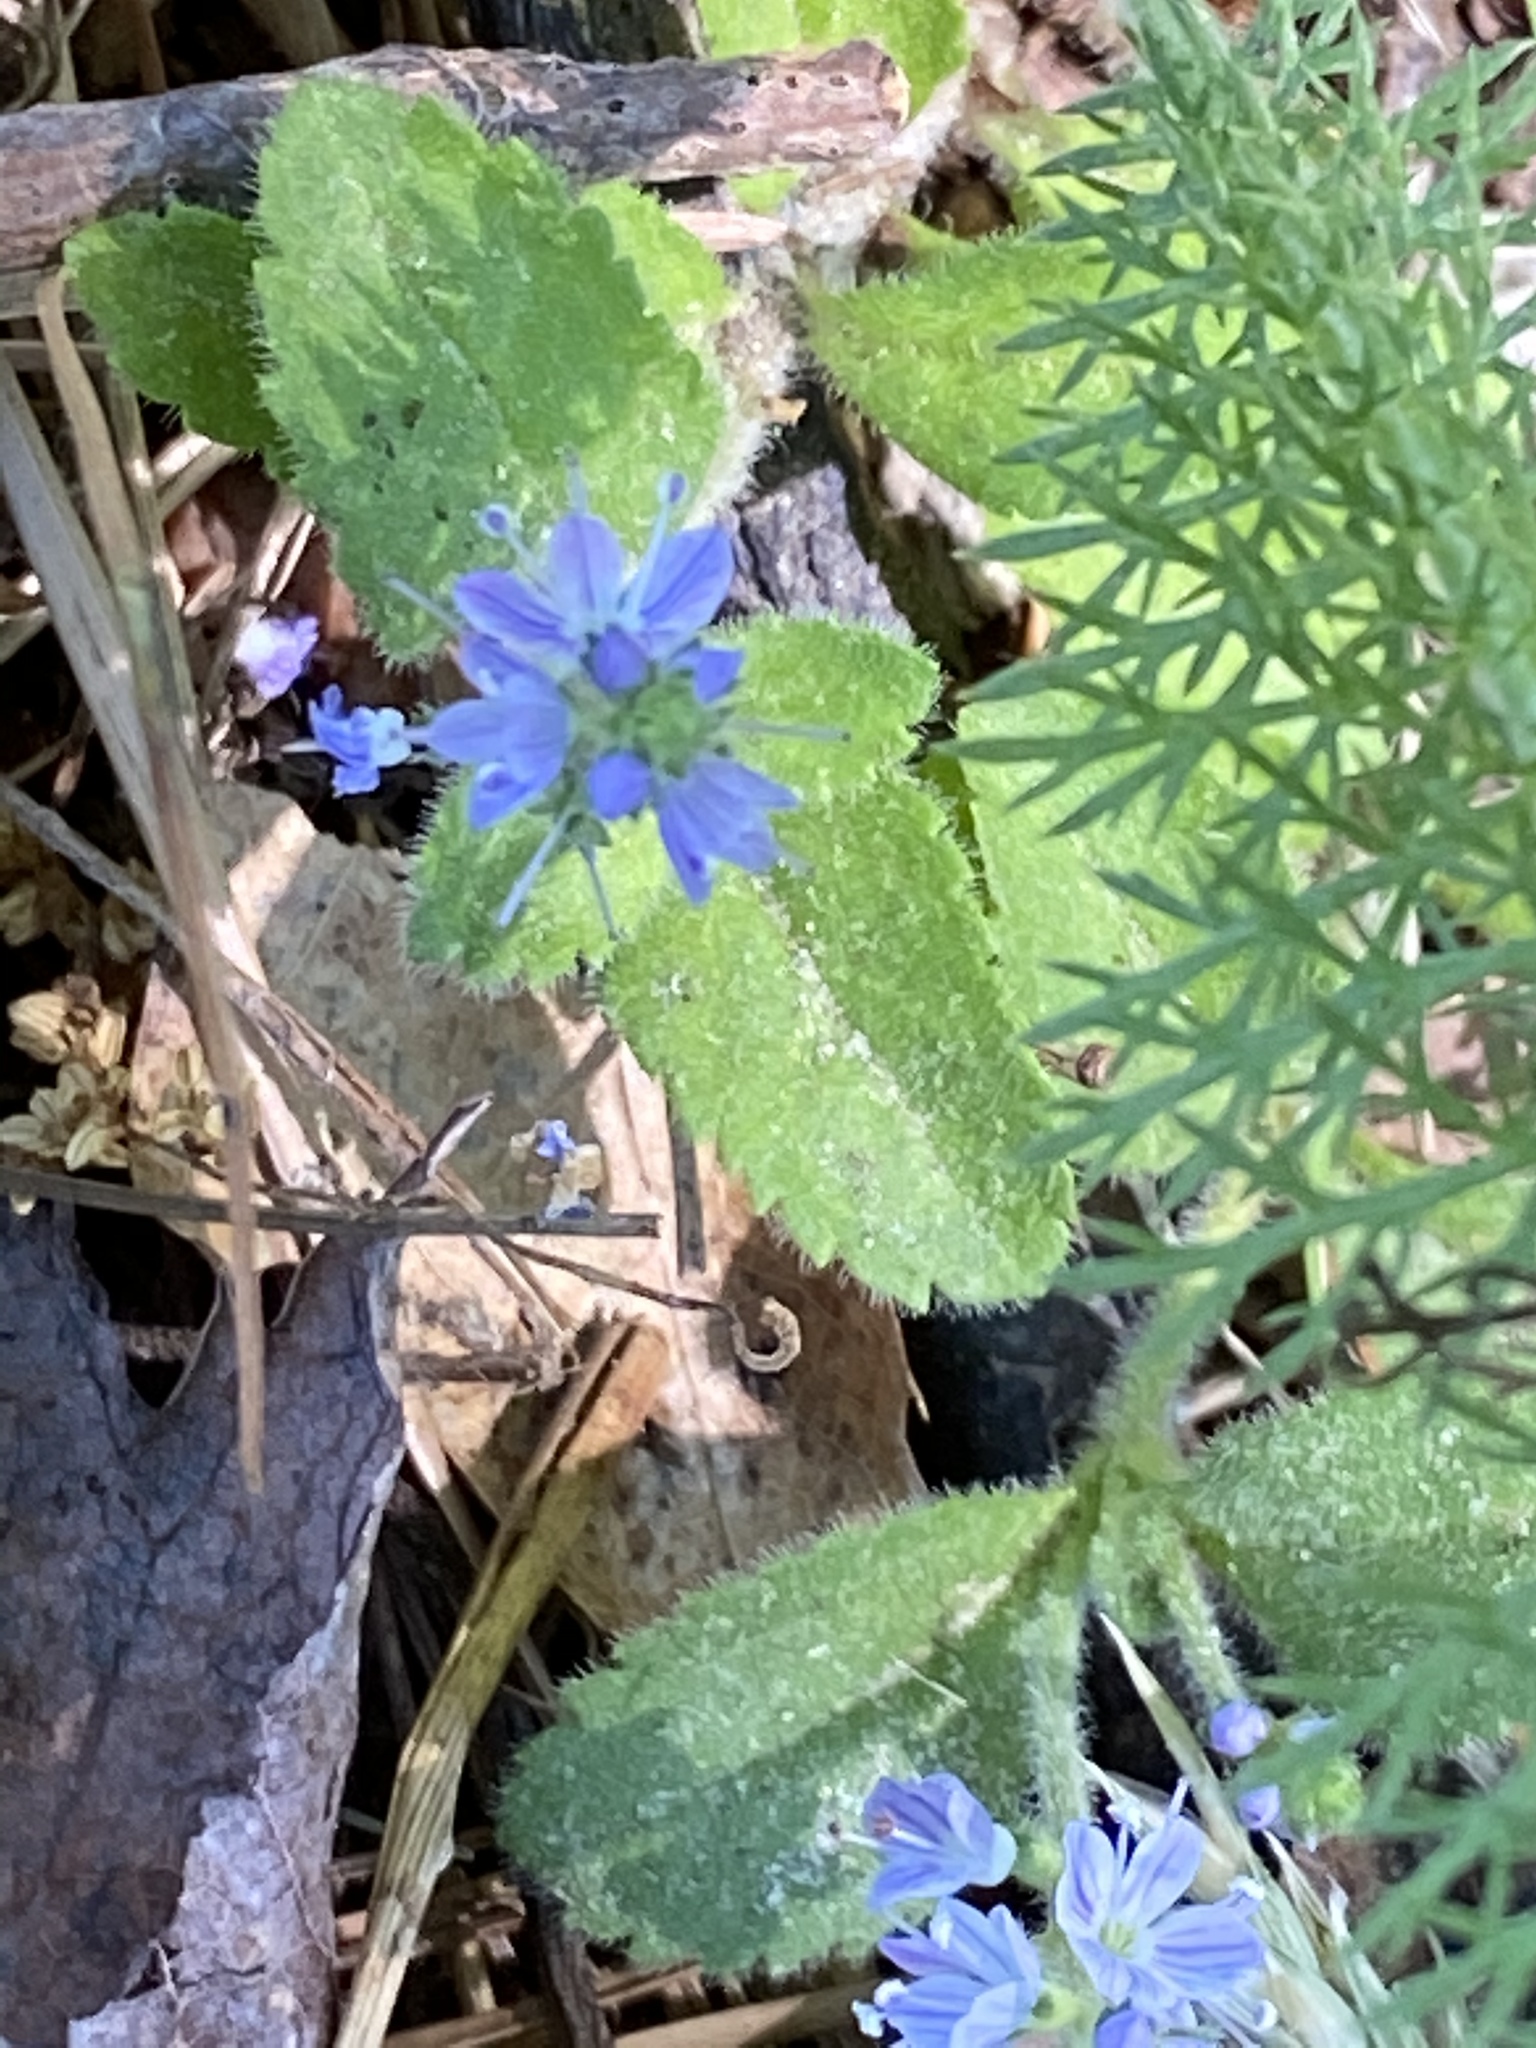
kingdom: Plantae
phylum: Tracheophyta
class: Magnoliopsida
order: Lamiales
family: Plantaginaceae
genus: Veronica
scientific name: Veronica officinalis
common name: Common speedwell
